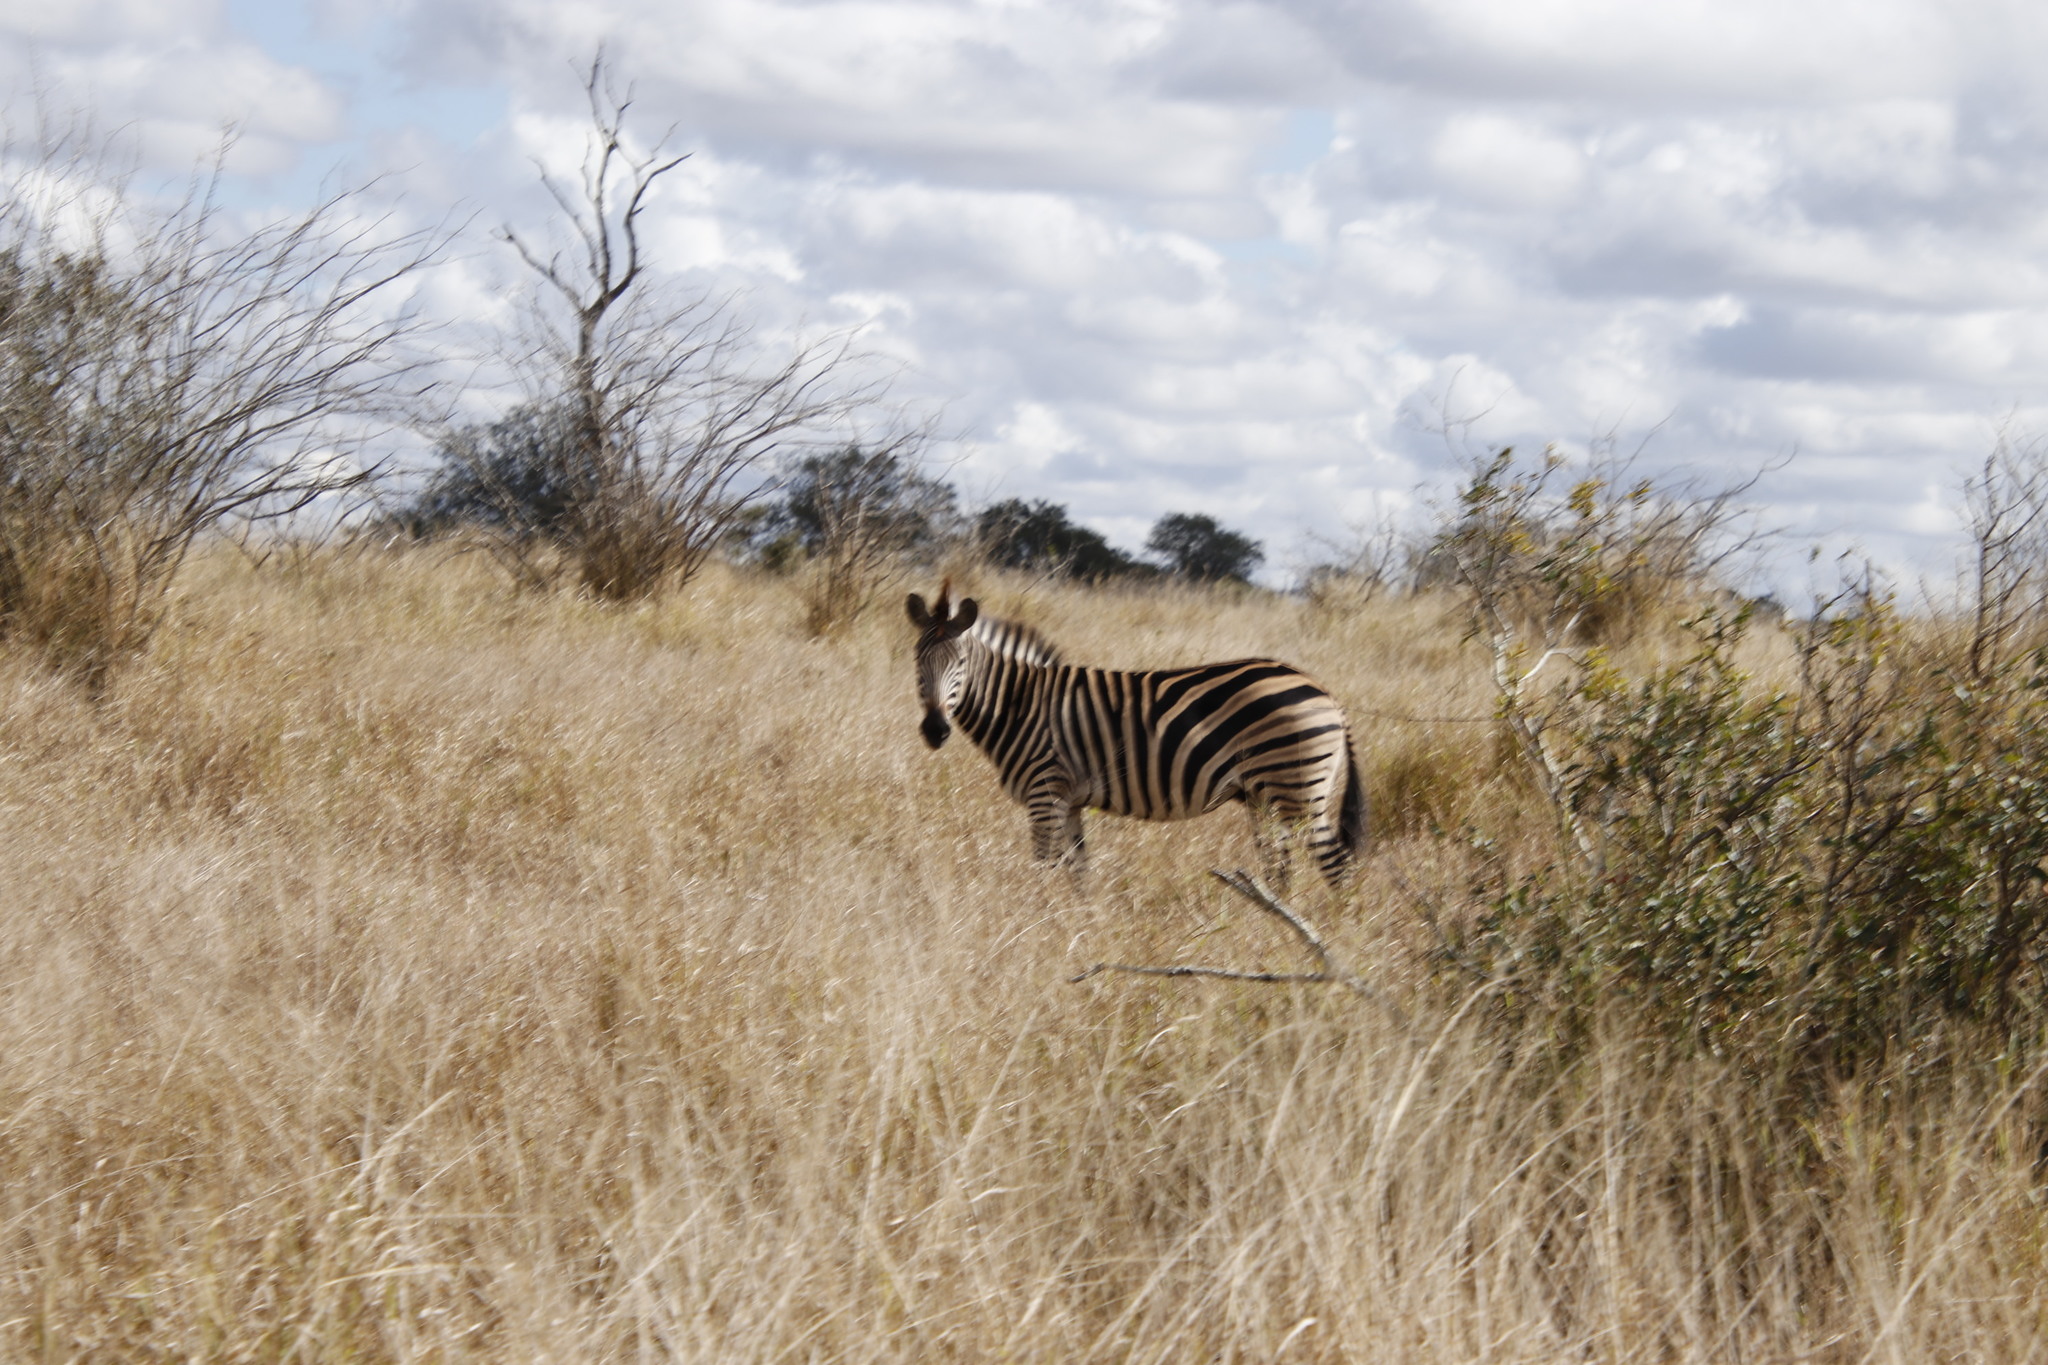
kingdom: Animalia
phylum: Chordata
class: Mammalia
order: Perissodactyla
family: Equidae
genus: Equus
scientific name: Equus quagga
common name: Plains zebra
